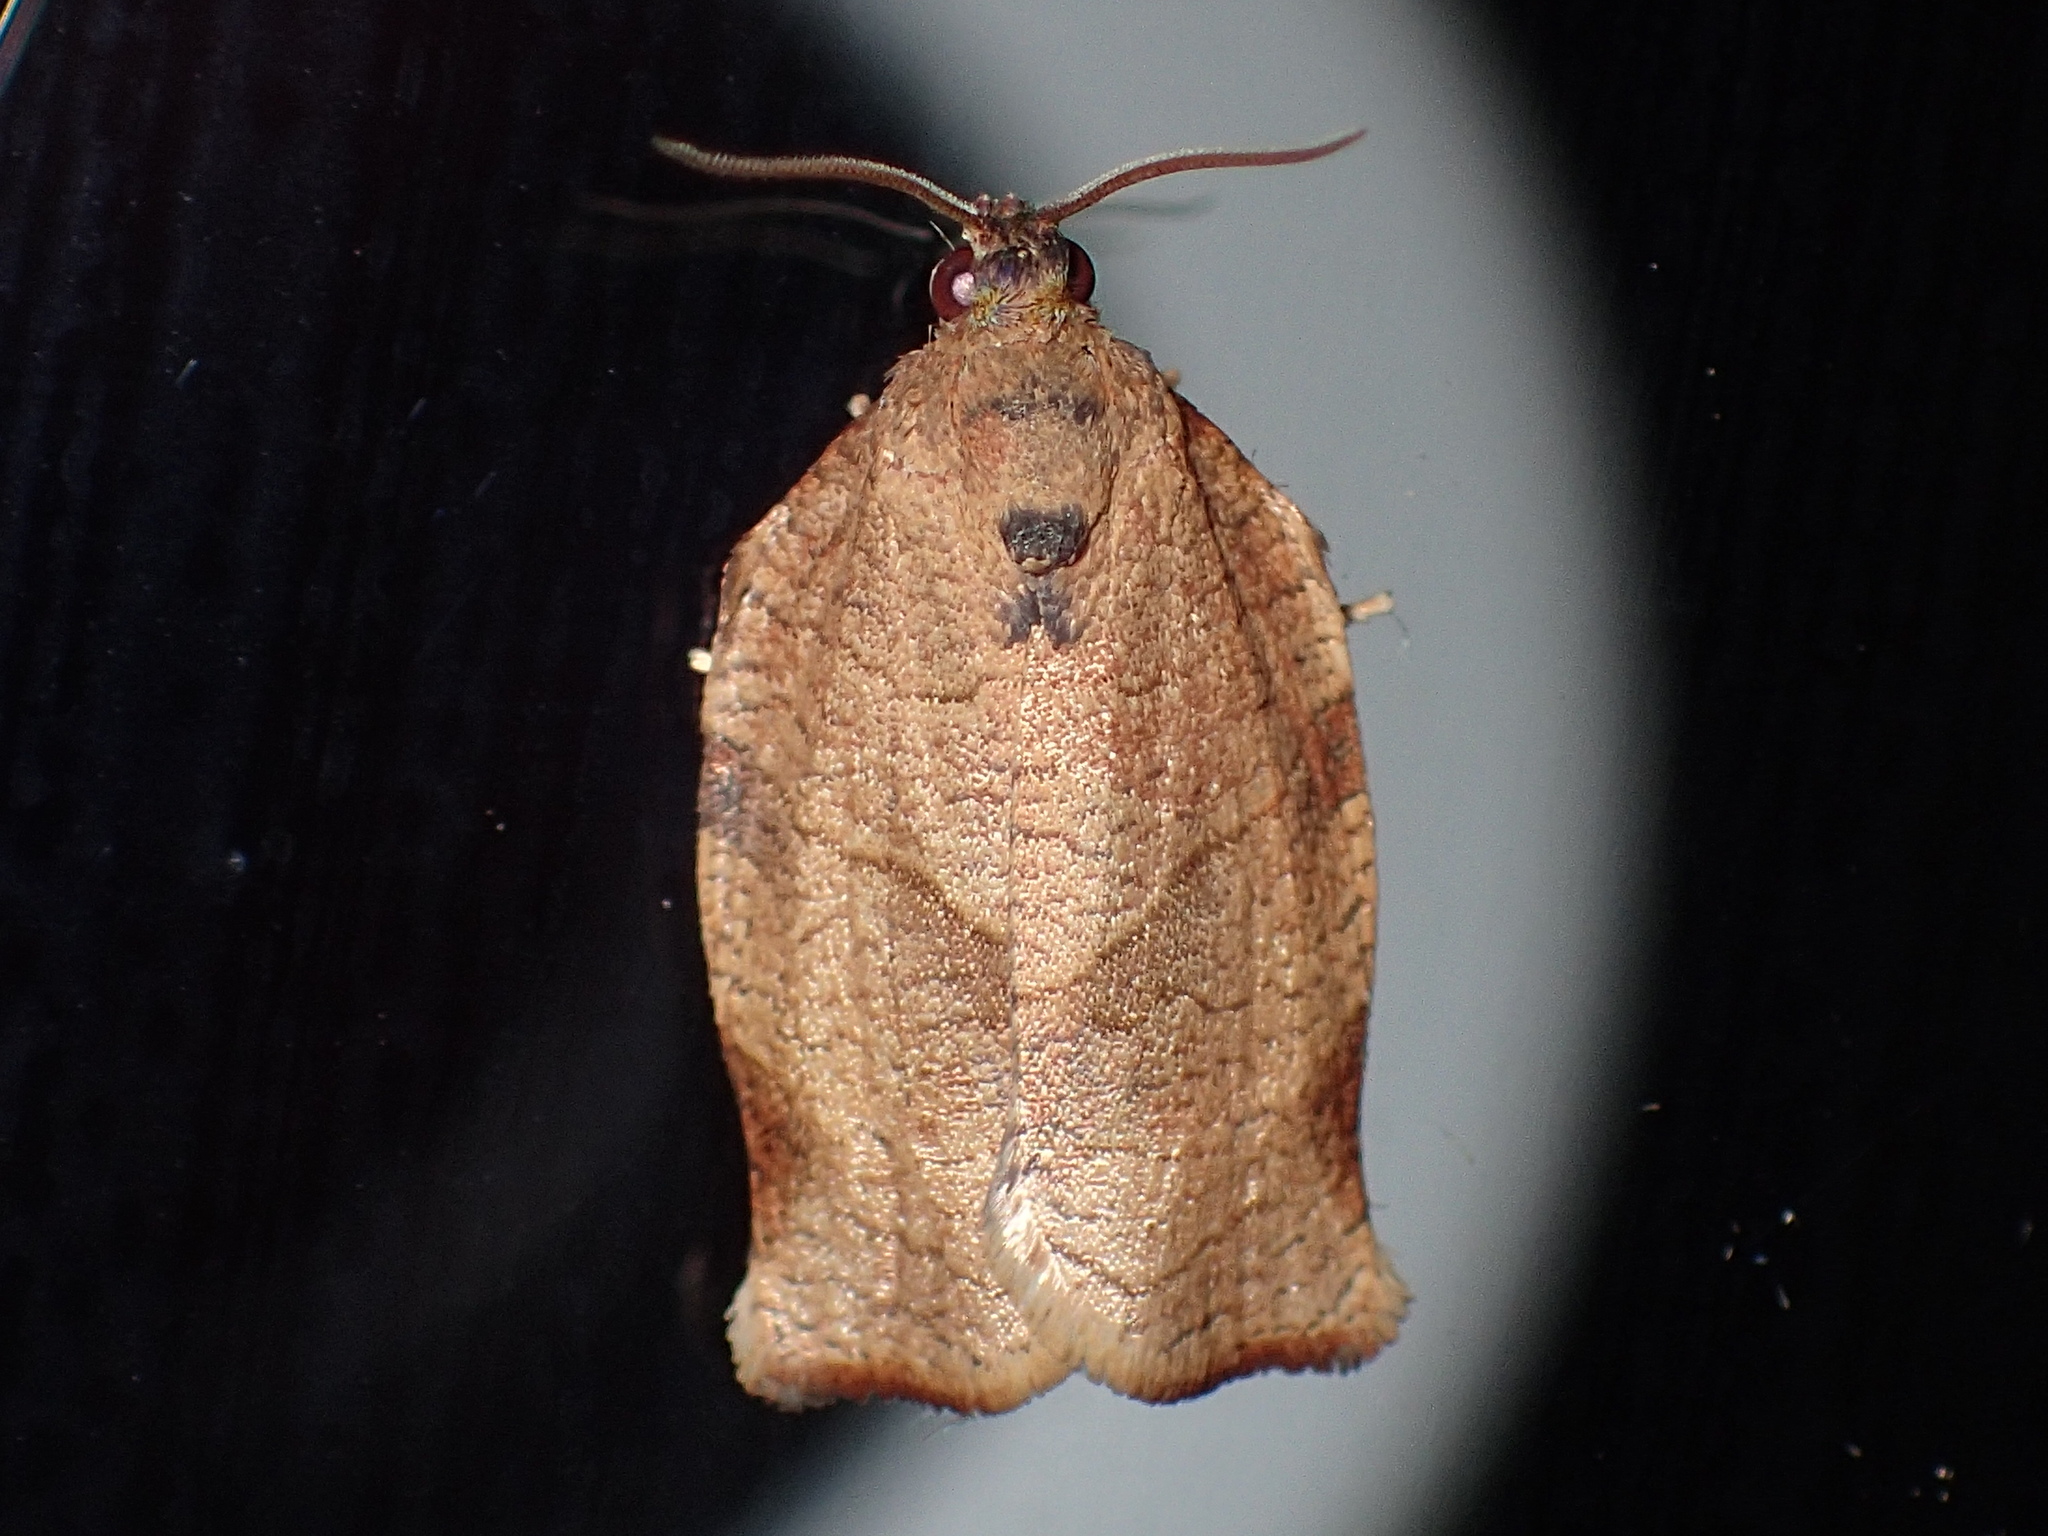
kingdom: Animalia
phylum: Arthropoda
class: Insecta
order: Lepidoptera
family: Tortricidae
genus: Choristoneura
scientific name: Choristoneura rosaceana
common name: Oblique-banded leafroller moth
